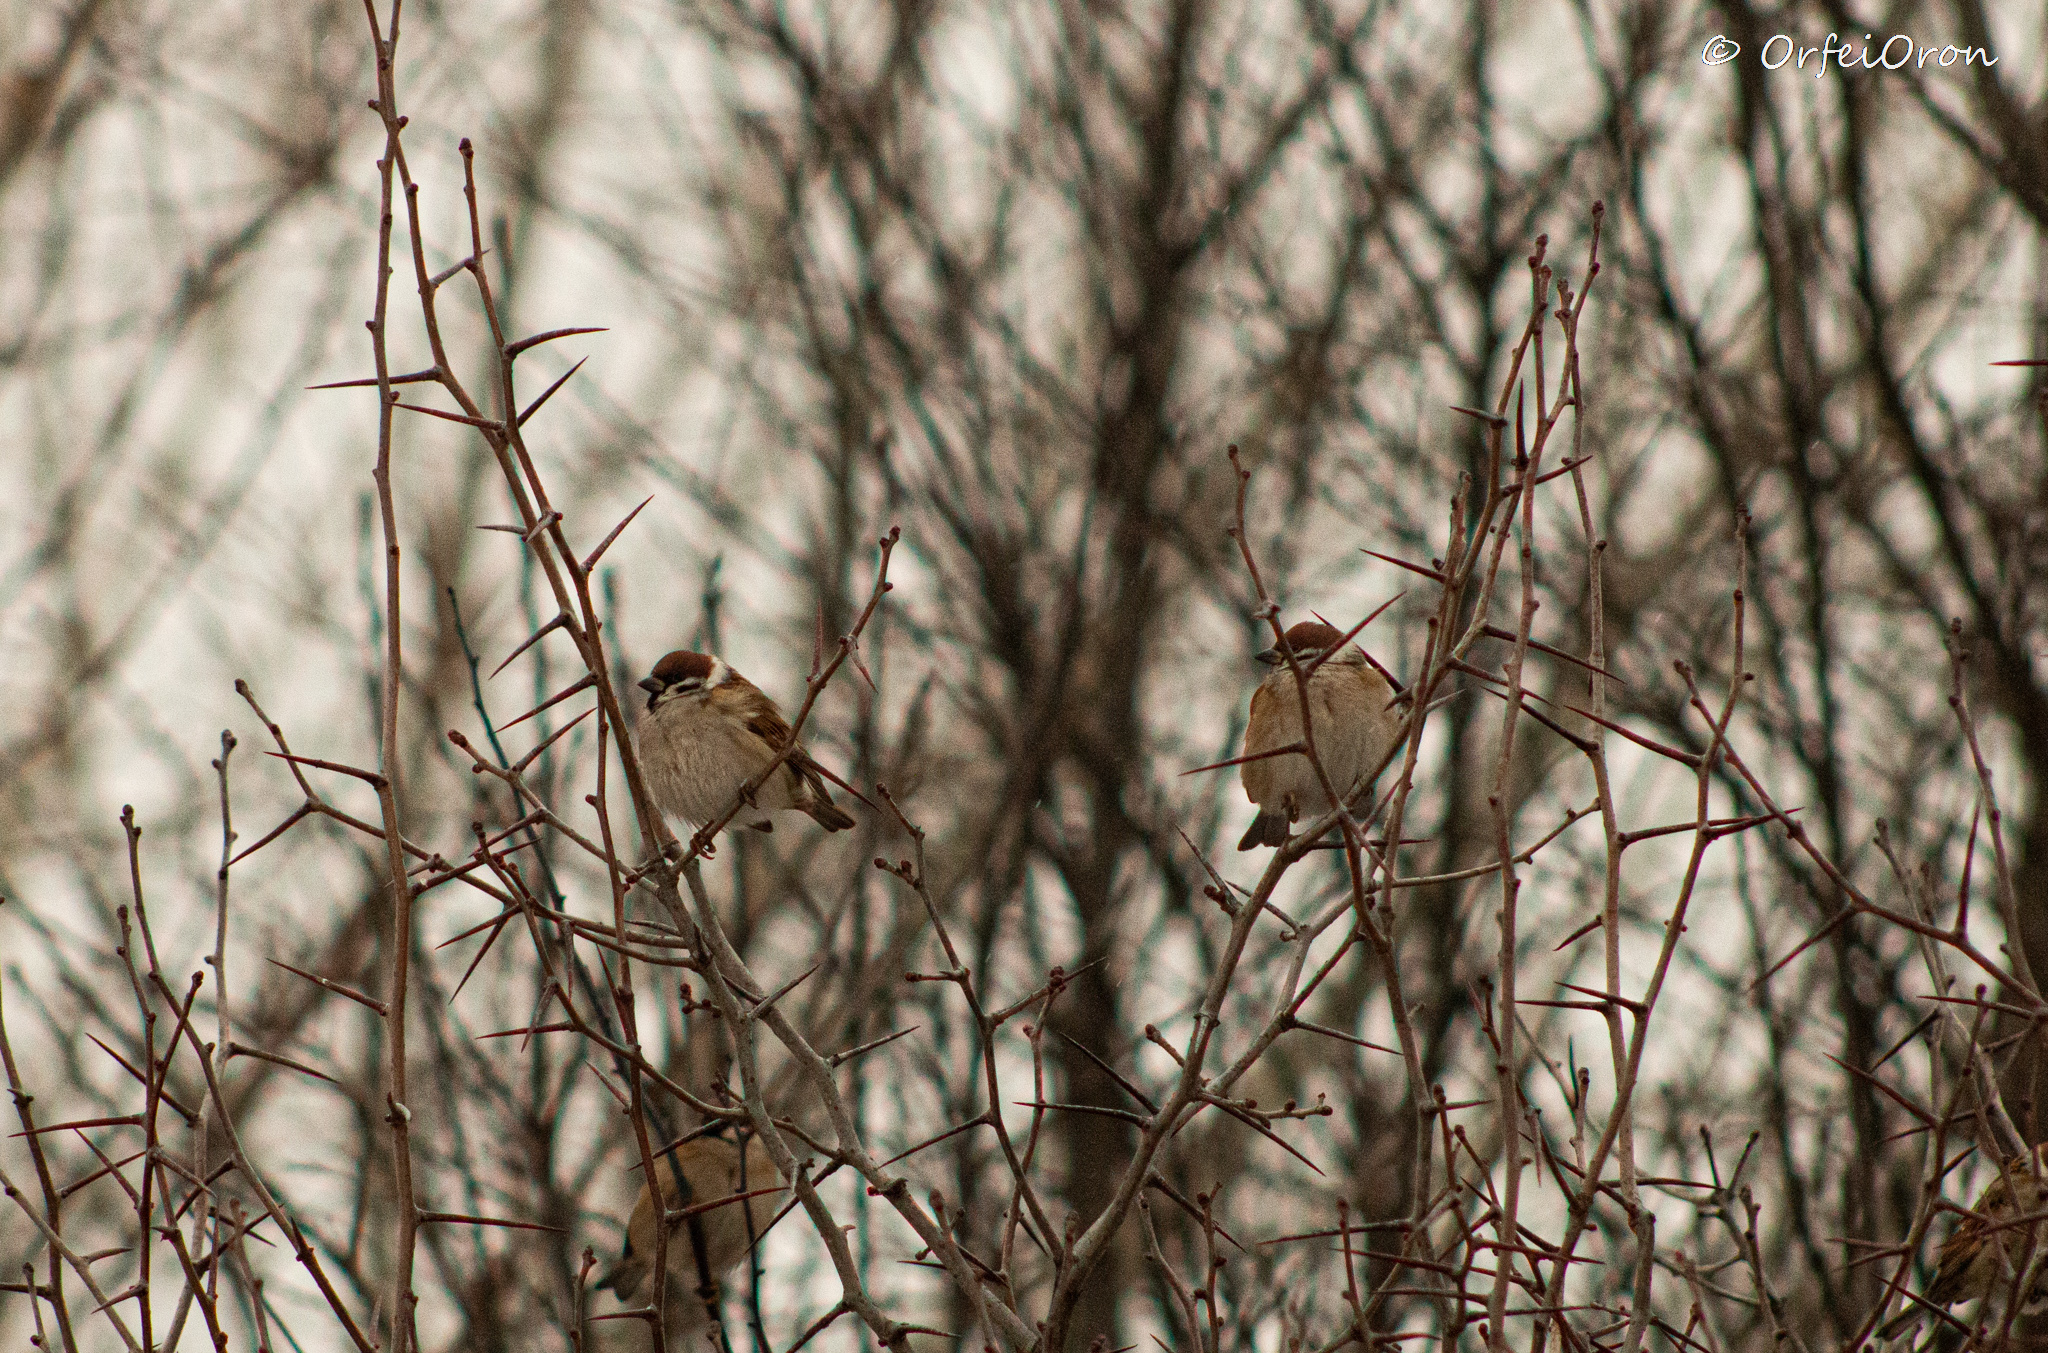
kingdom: Animalia
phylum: Chordata
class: Aves
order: Passeriformes
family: Passeridae
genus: Passer
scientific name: Passer montanus
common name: Eurasian tree sparrow
